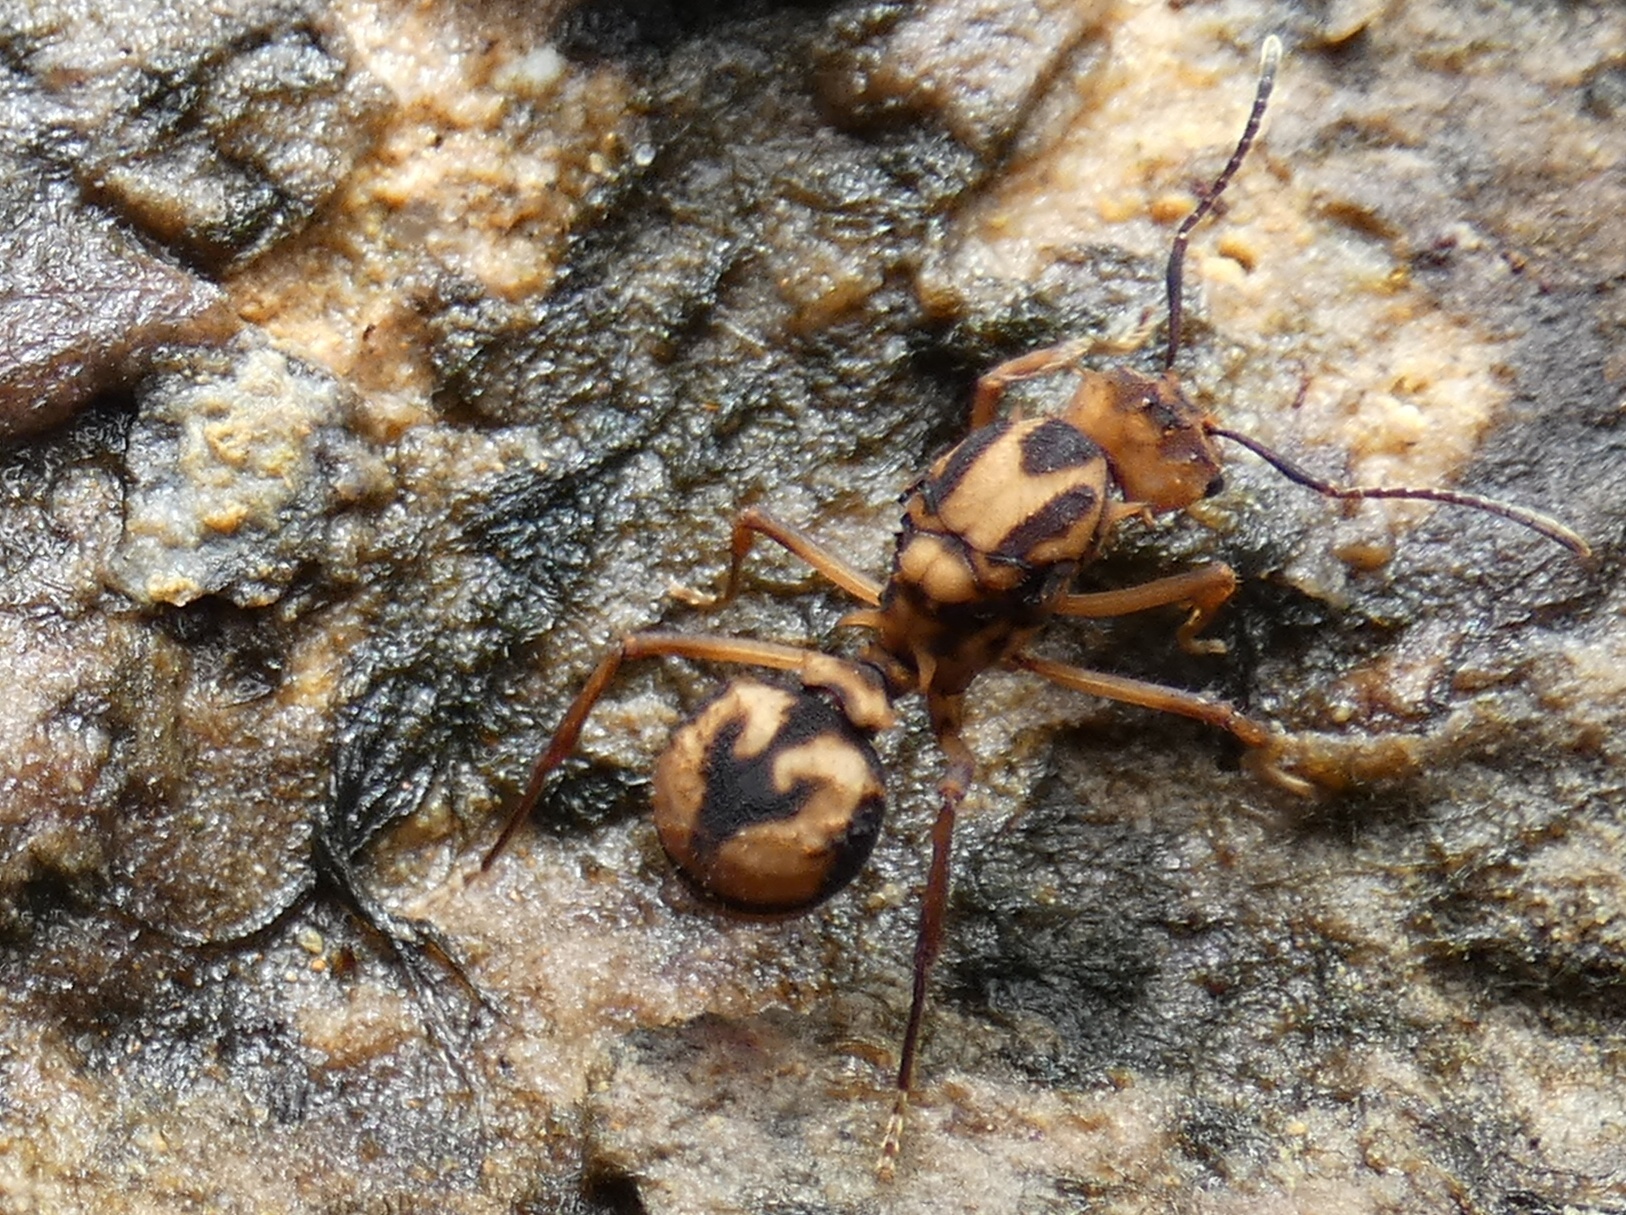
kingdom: Animalia
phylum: Arthropoda
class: Insecta
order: Hymenoptera
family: Formicidae
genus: Acromyrmex
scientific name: Acromyrmex coronatus
